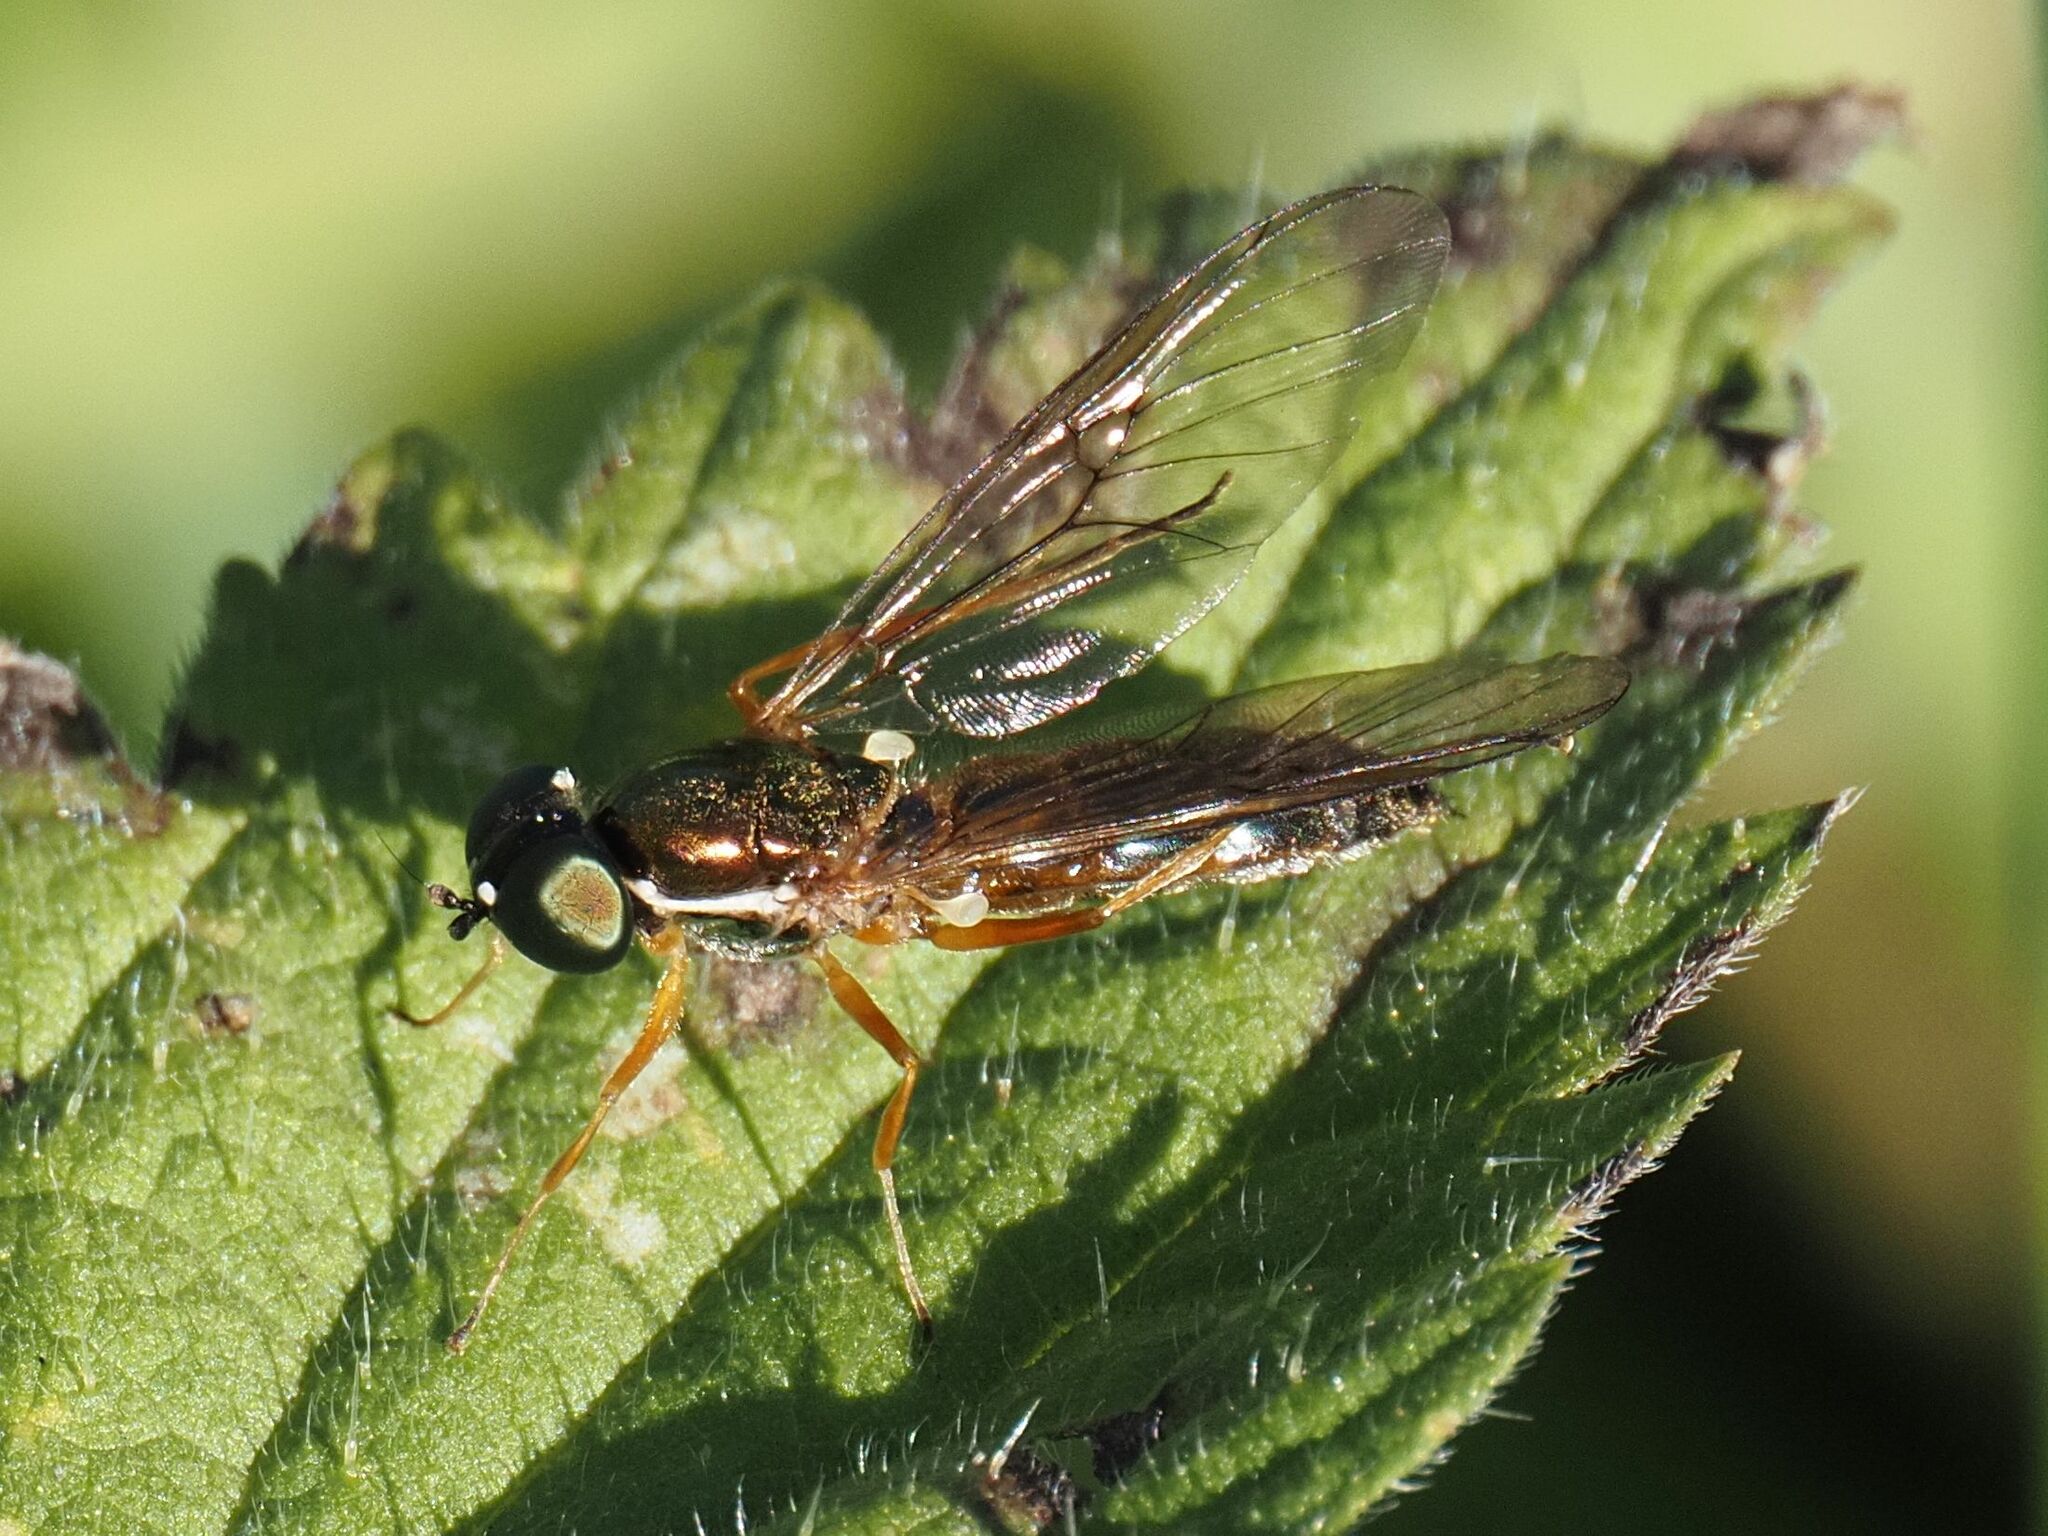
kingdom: Animalia
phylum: Arthropoda
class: Insecta
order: Diptera
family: Stratiomyidae
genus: Sargus
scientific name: Sargus bipunctatus
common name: Twin-spot centurion
